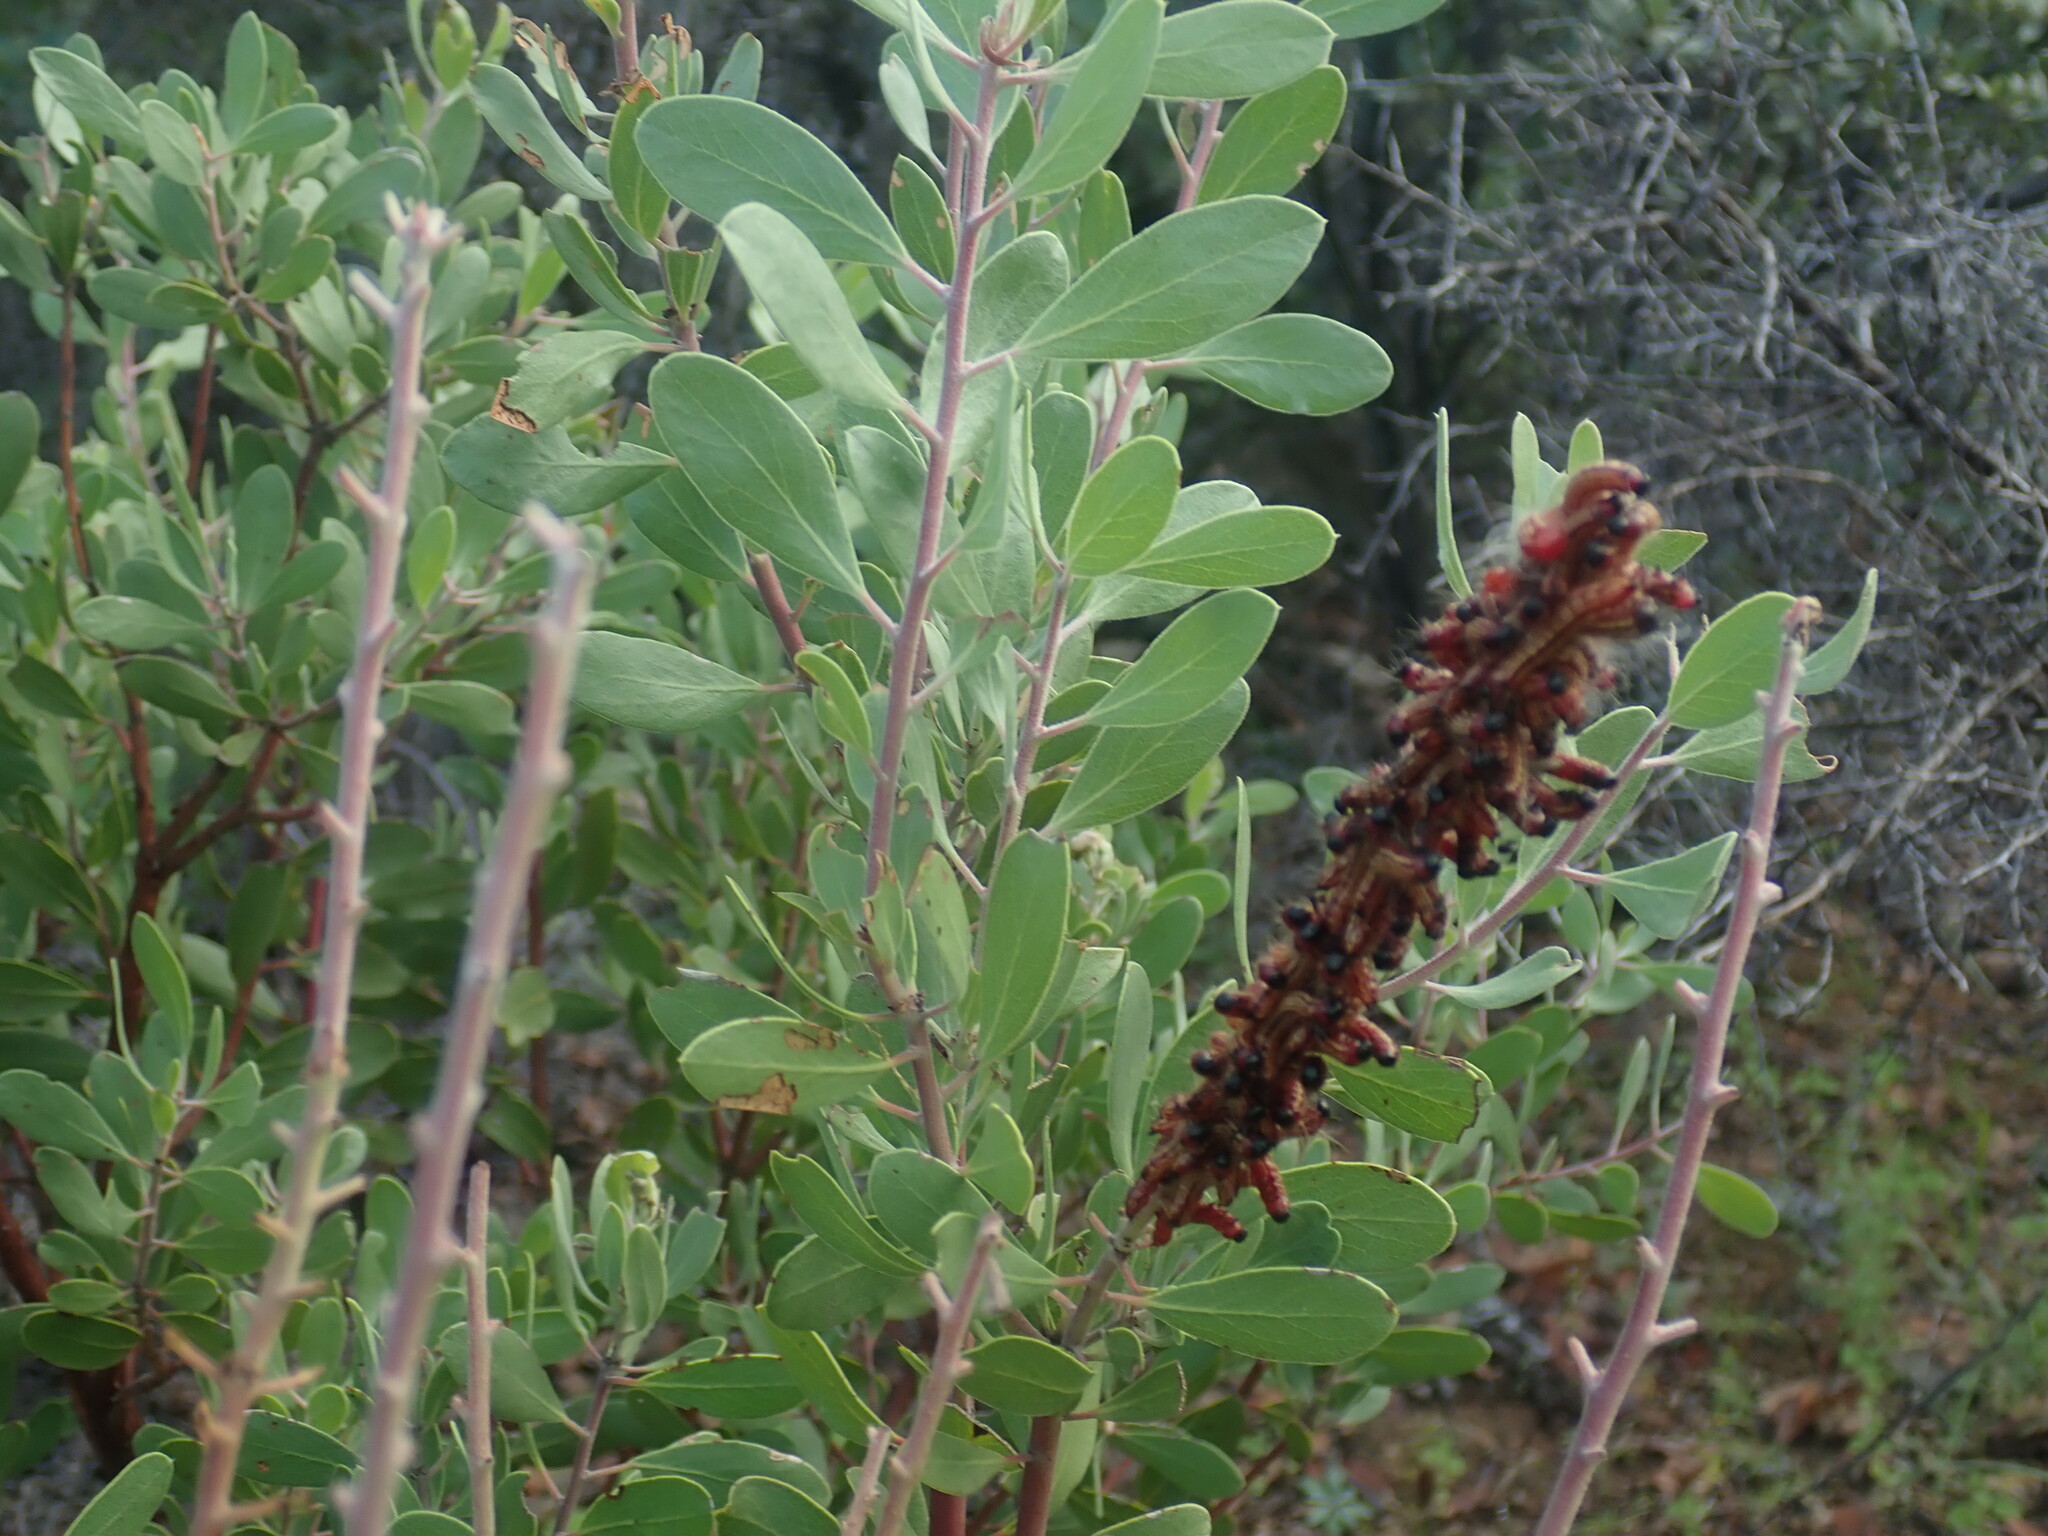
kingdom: Animalia
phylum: Arthropoda
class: Insecta
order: Lepidoptera
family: Notodontidae
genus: Datana
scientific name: Datana perfusa
